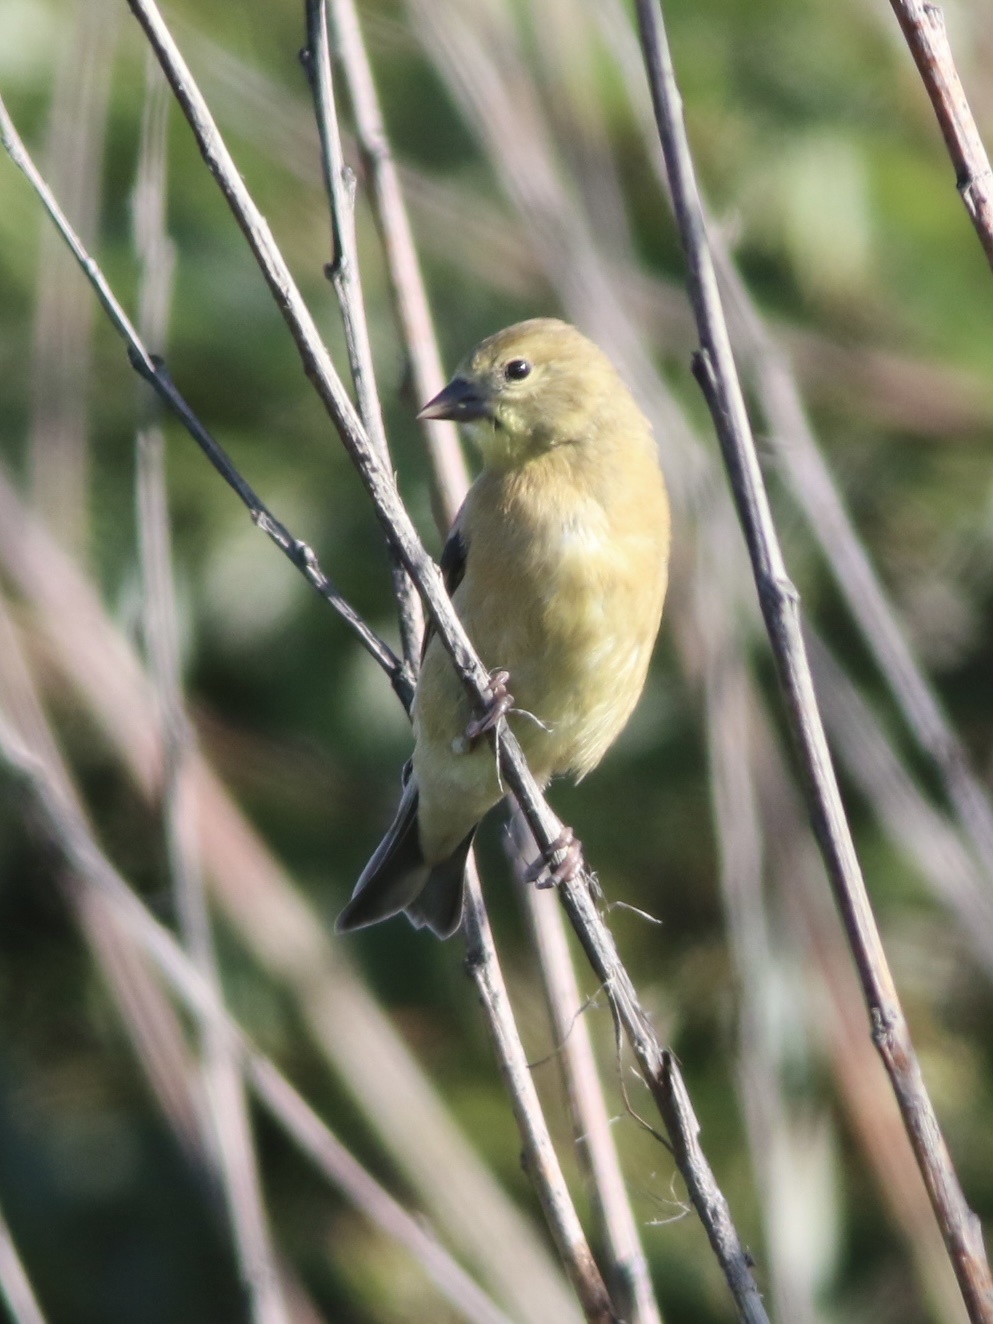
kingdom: Animalia
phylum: Chordata
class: Aves
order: Passeriformes
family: Fringillidae
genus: Spinus
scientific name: Spinus psaltria
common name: Lesser goldfinch
